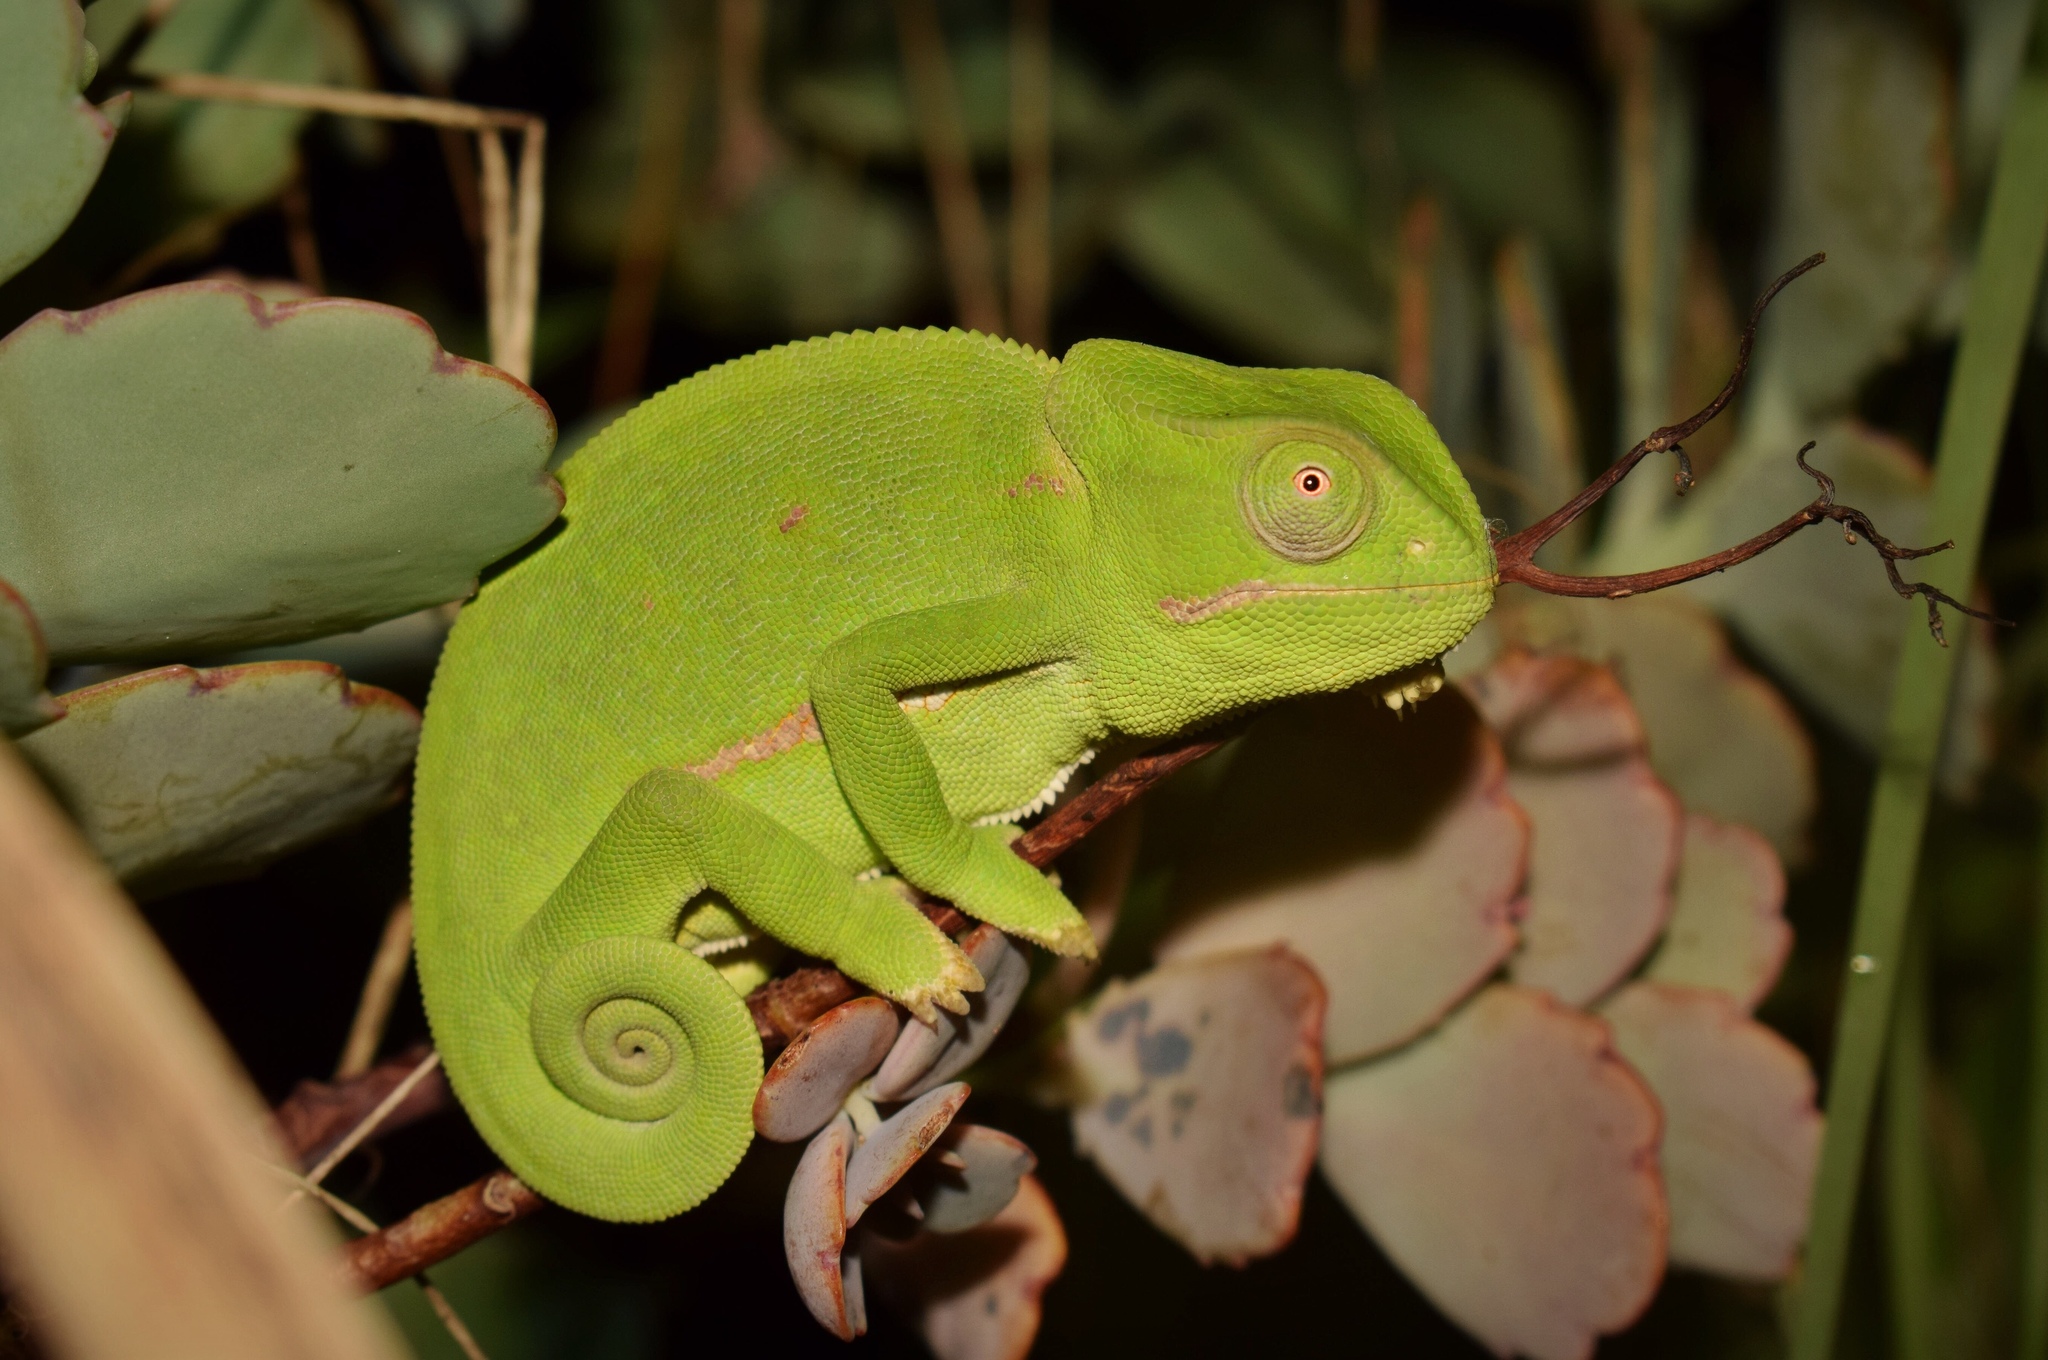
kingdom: Animalia
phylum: Chordata
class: Squamata
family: Chamaeleonidae
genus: Chamaeleo
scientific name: Chamaeleo dilepis
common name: Flapneck chameleon
